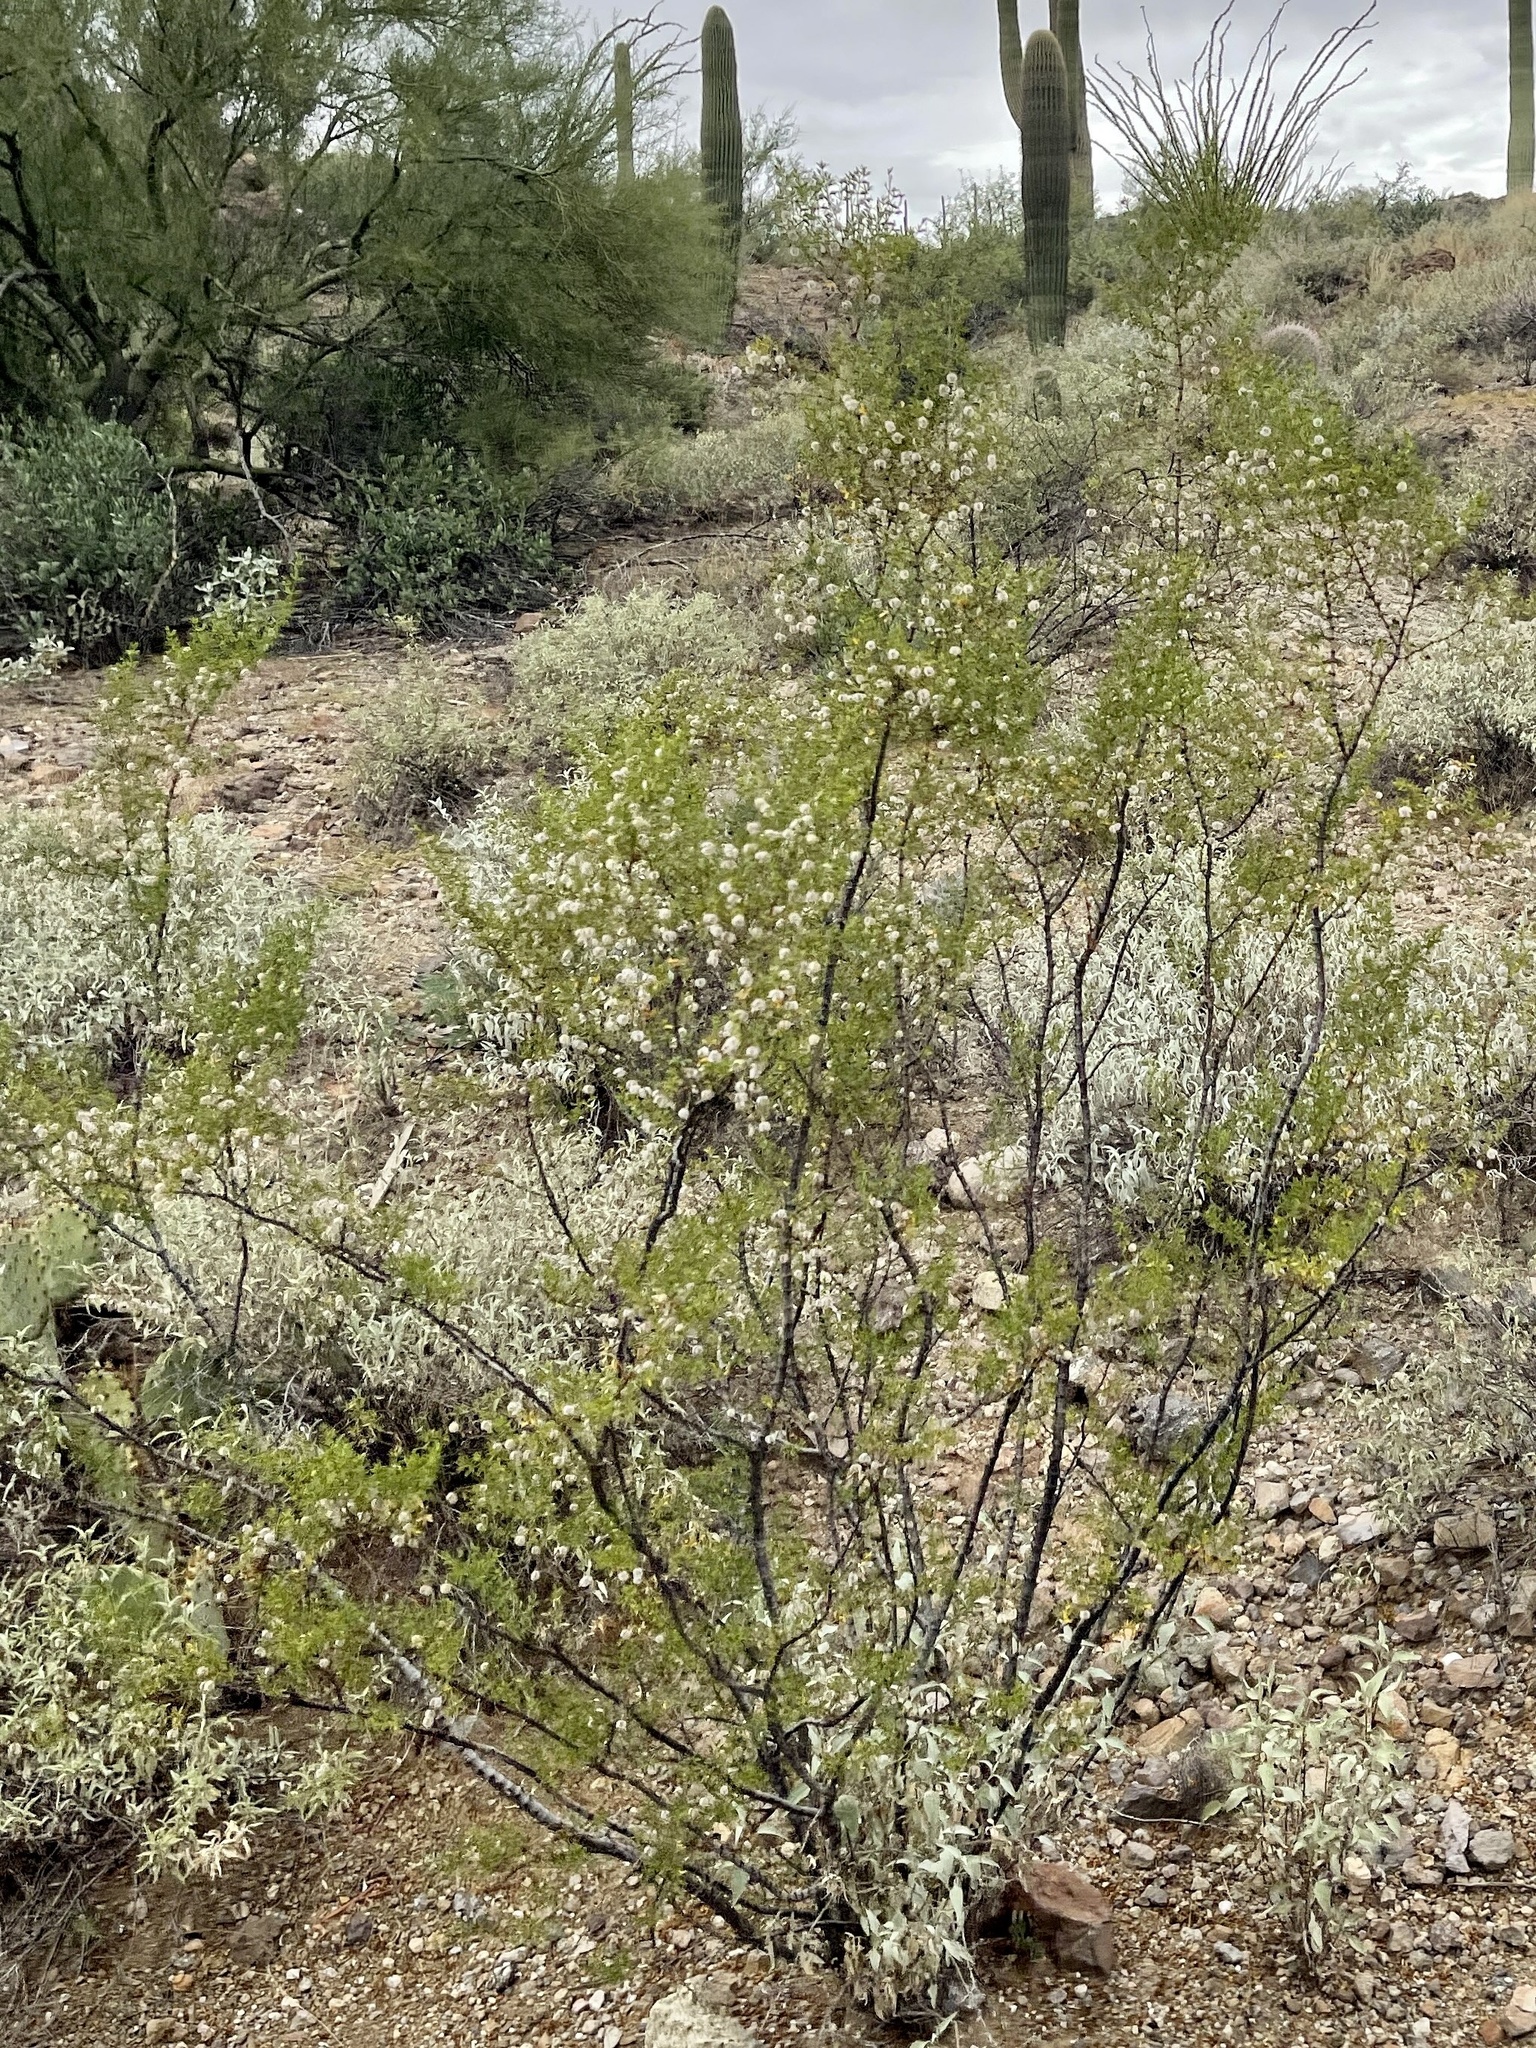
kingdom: Plantae
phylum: Tracheophyta
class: Magnoliopsida
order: Zygophyllales
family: Zygophyllaceae
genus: Larrea
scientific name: Larrea tridentata
